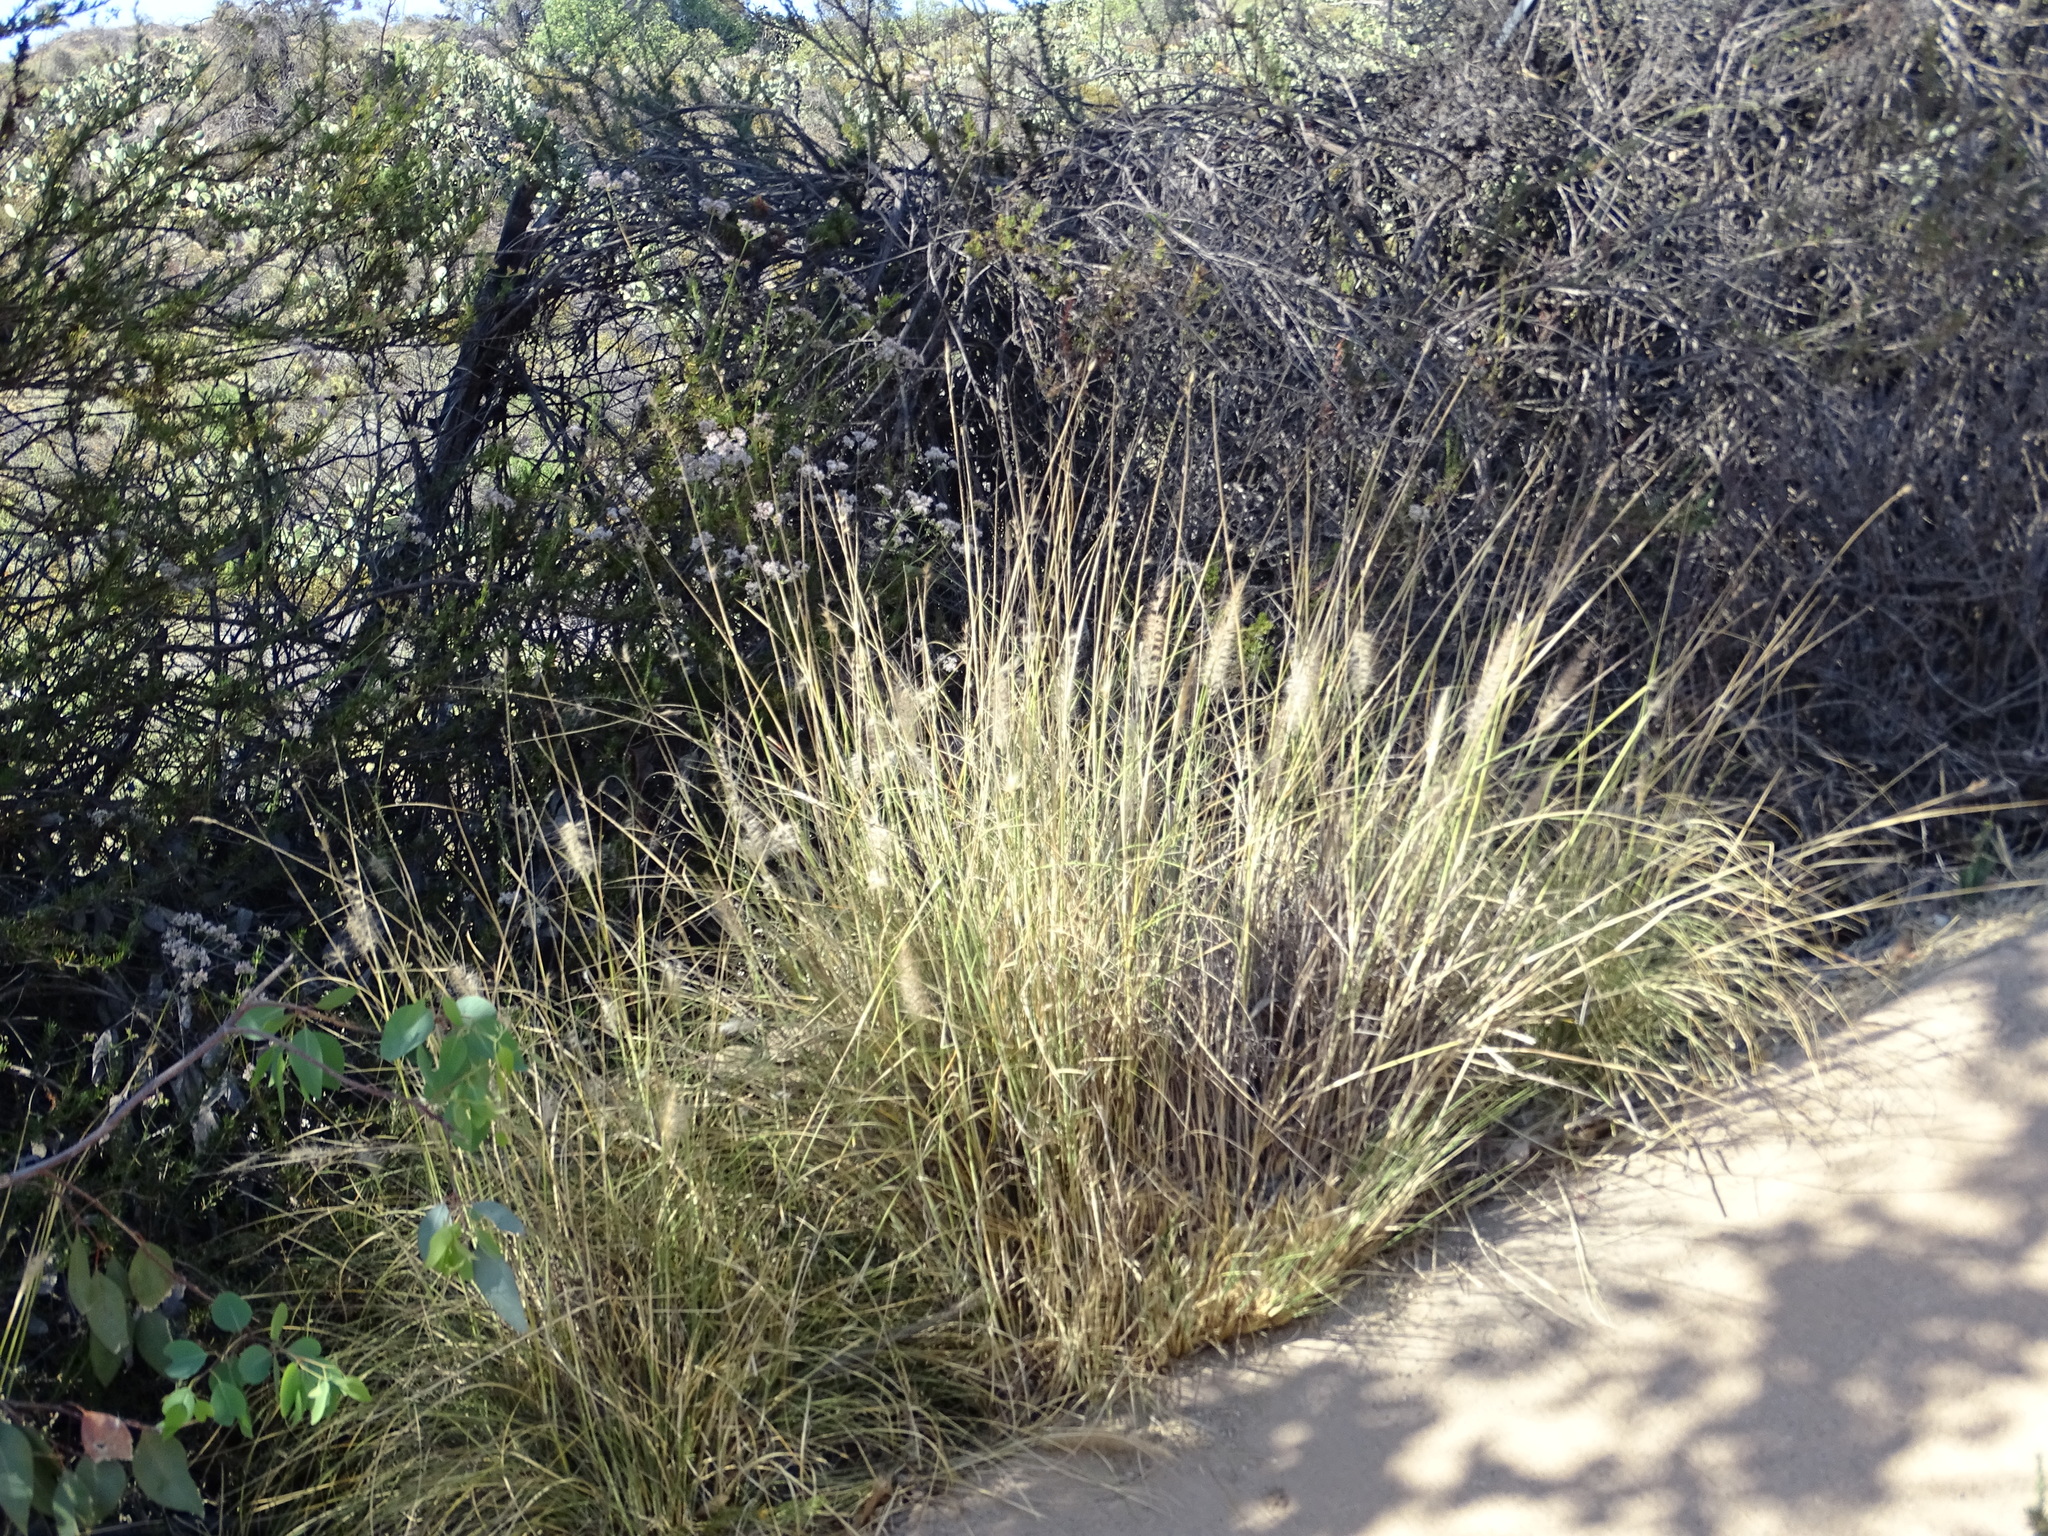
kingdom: Plantae
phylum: Tracheophyta
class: Liliopsida
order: Poales
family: Poaceae
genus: Cenchrus
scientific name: Cenchrus setaceus
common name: Crimson fountaingrass
